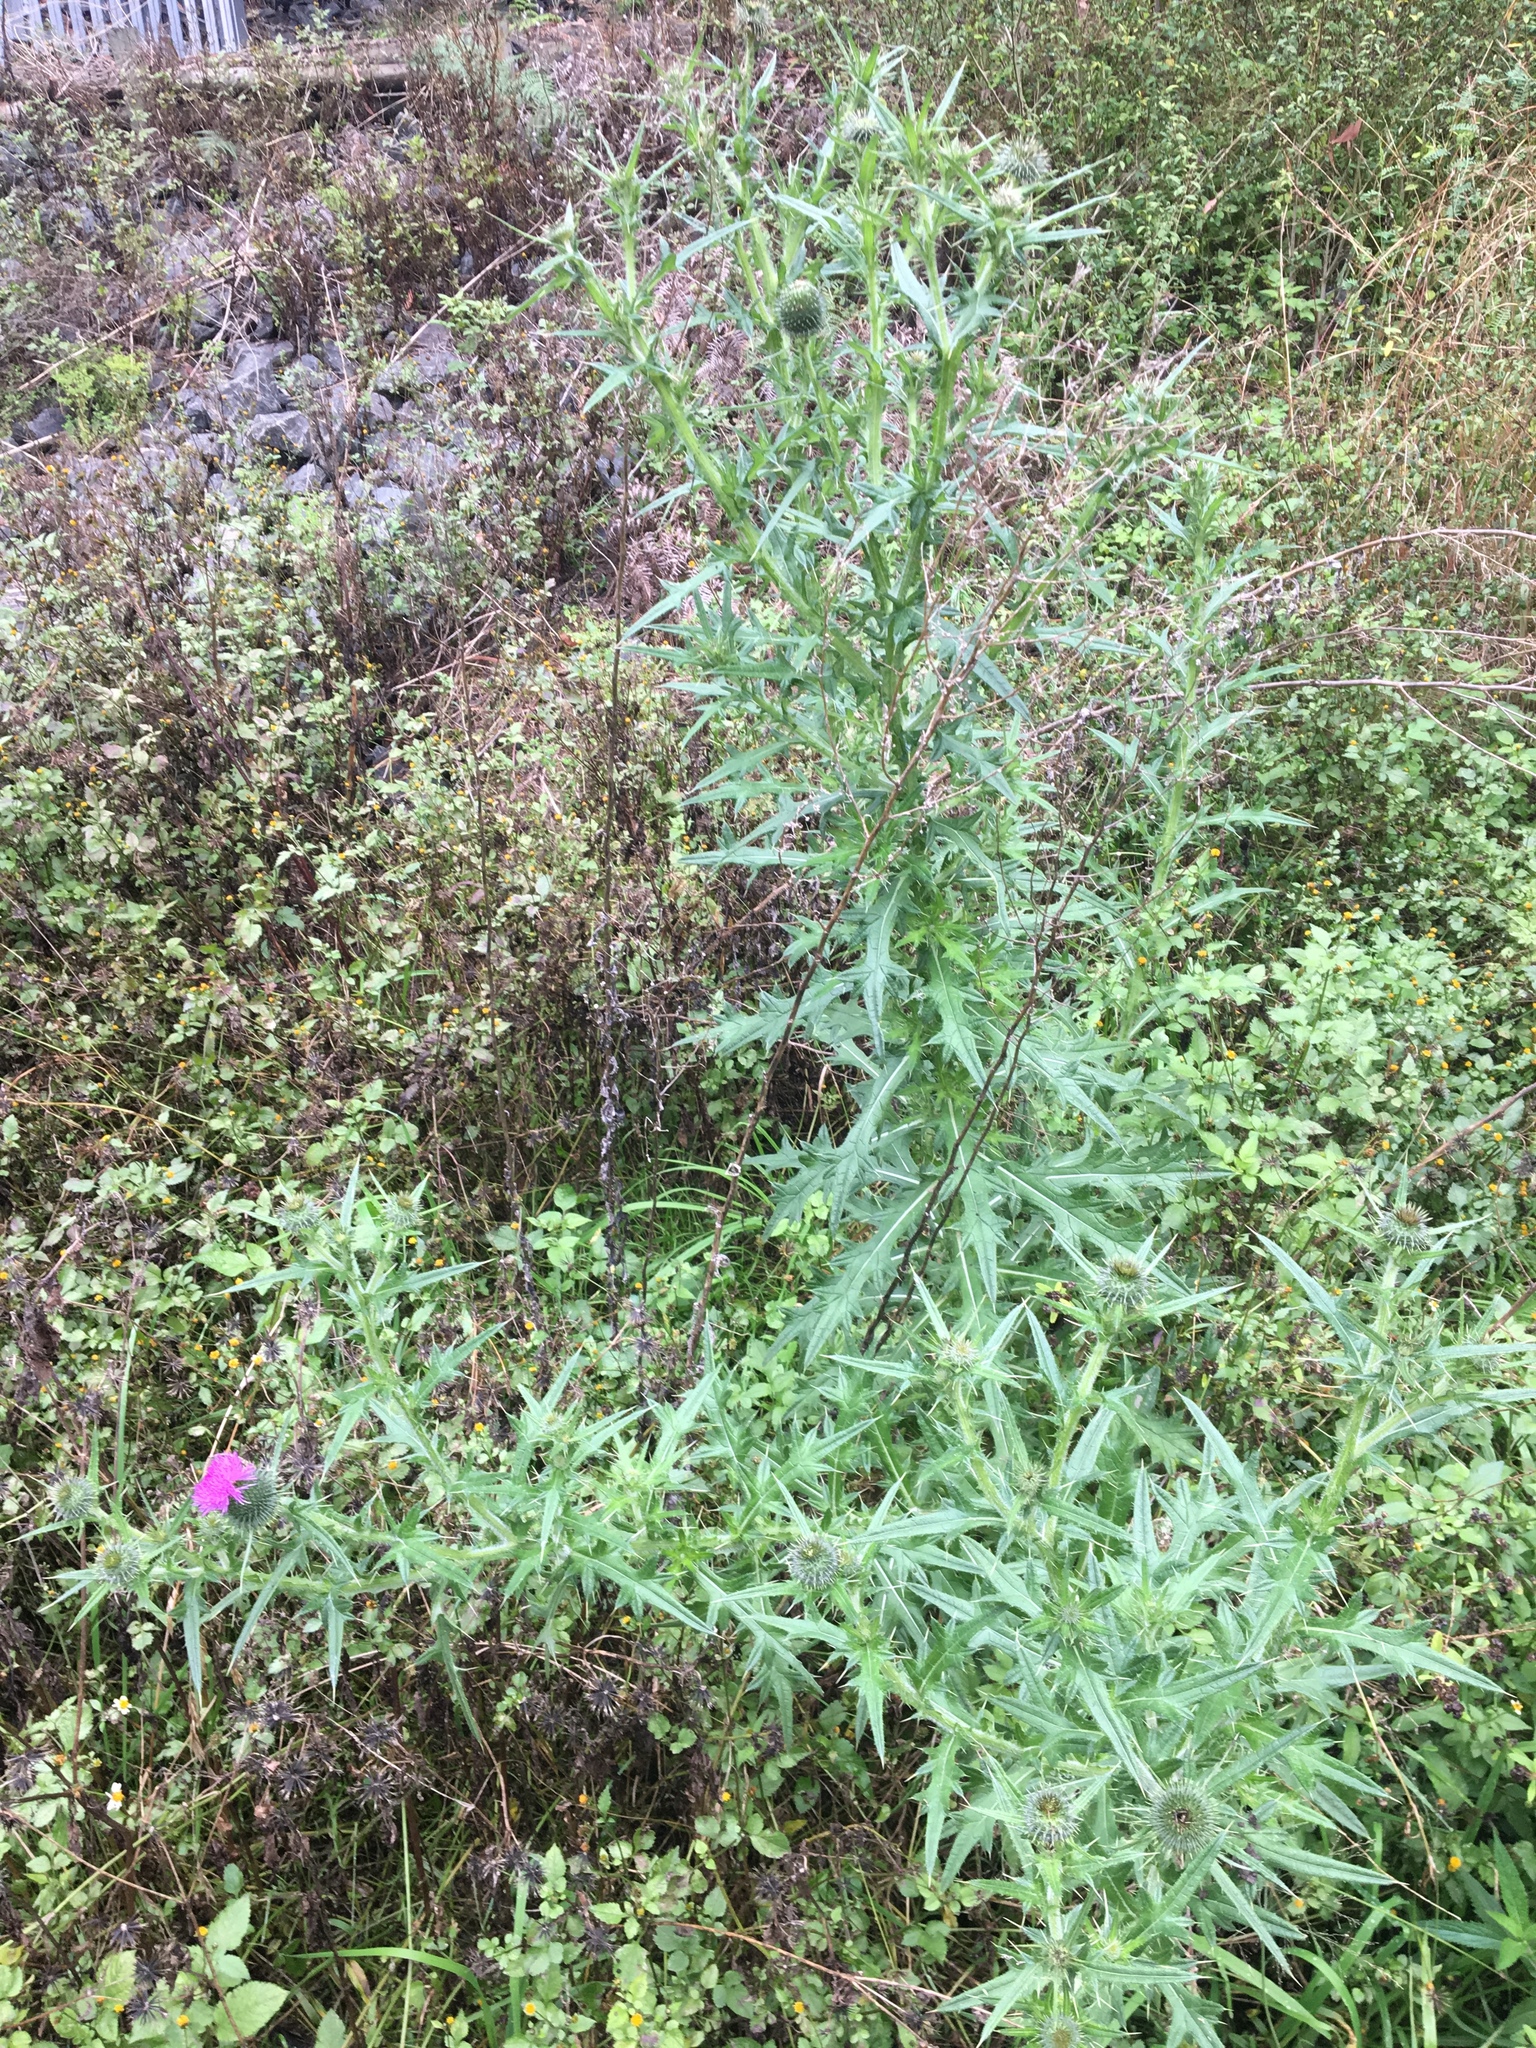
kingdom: Plantae
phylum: Tracheophyta
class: Magnoliopsida
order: Asterales
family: Asteraceae
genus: Cirsium
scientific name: Cirsium vulgare
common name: Bull thistle
